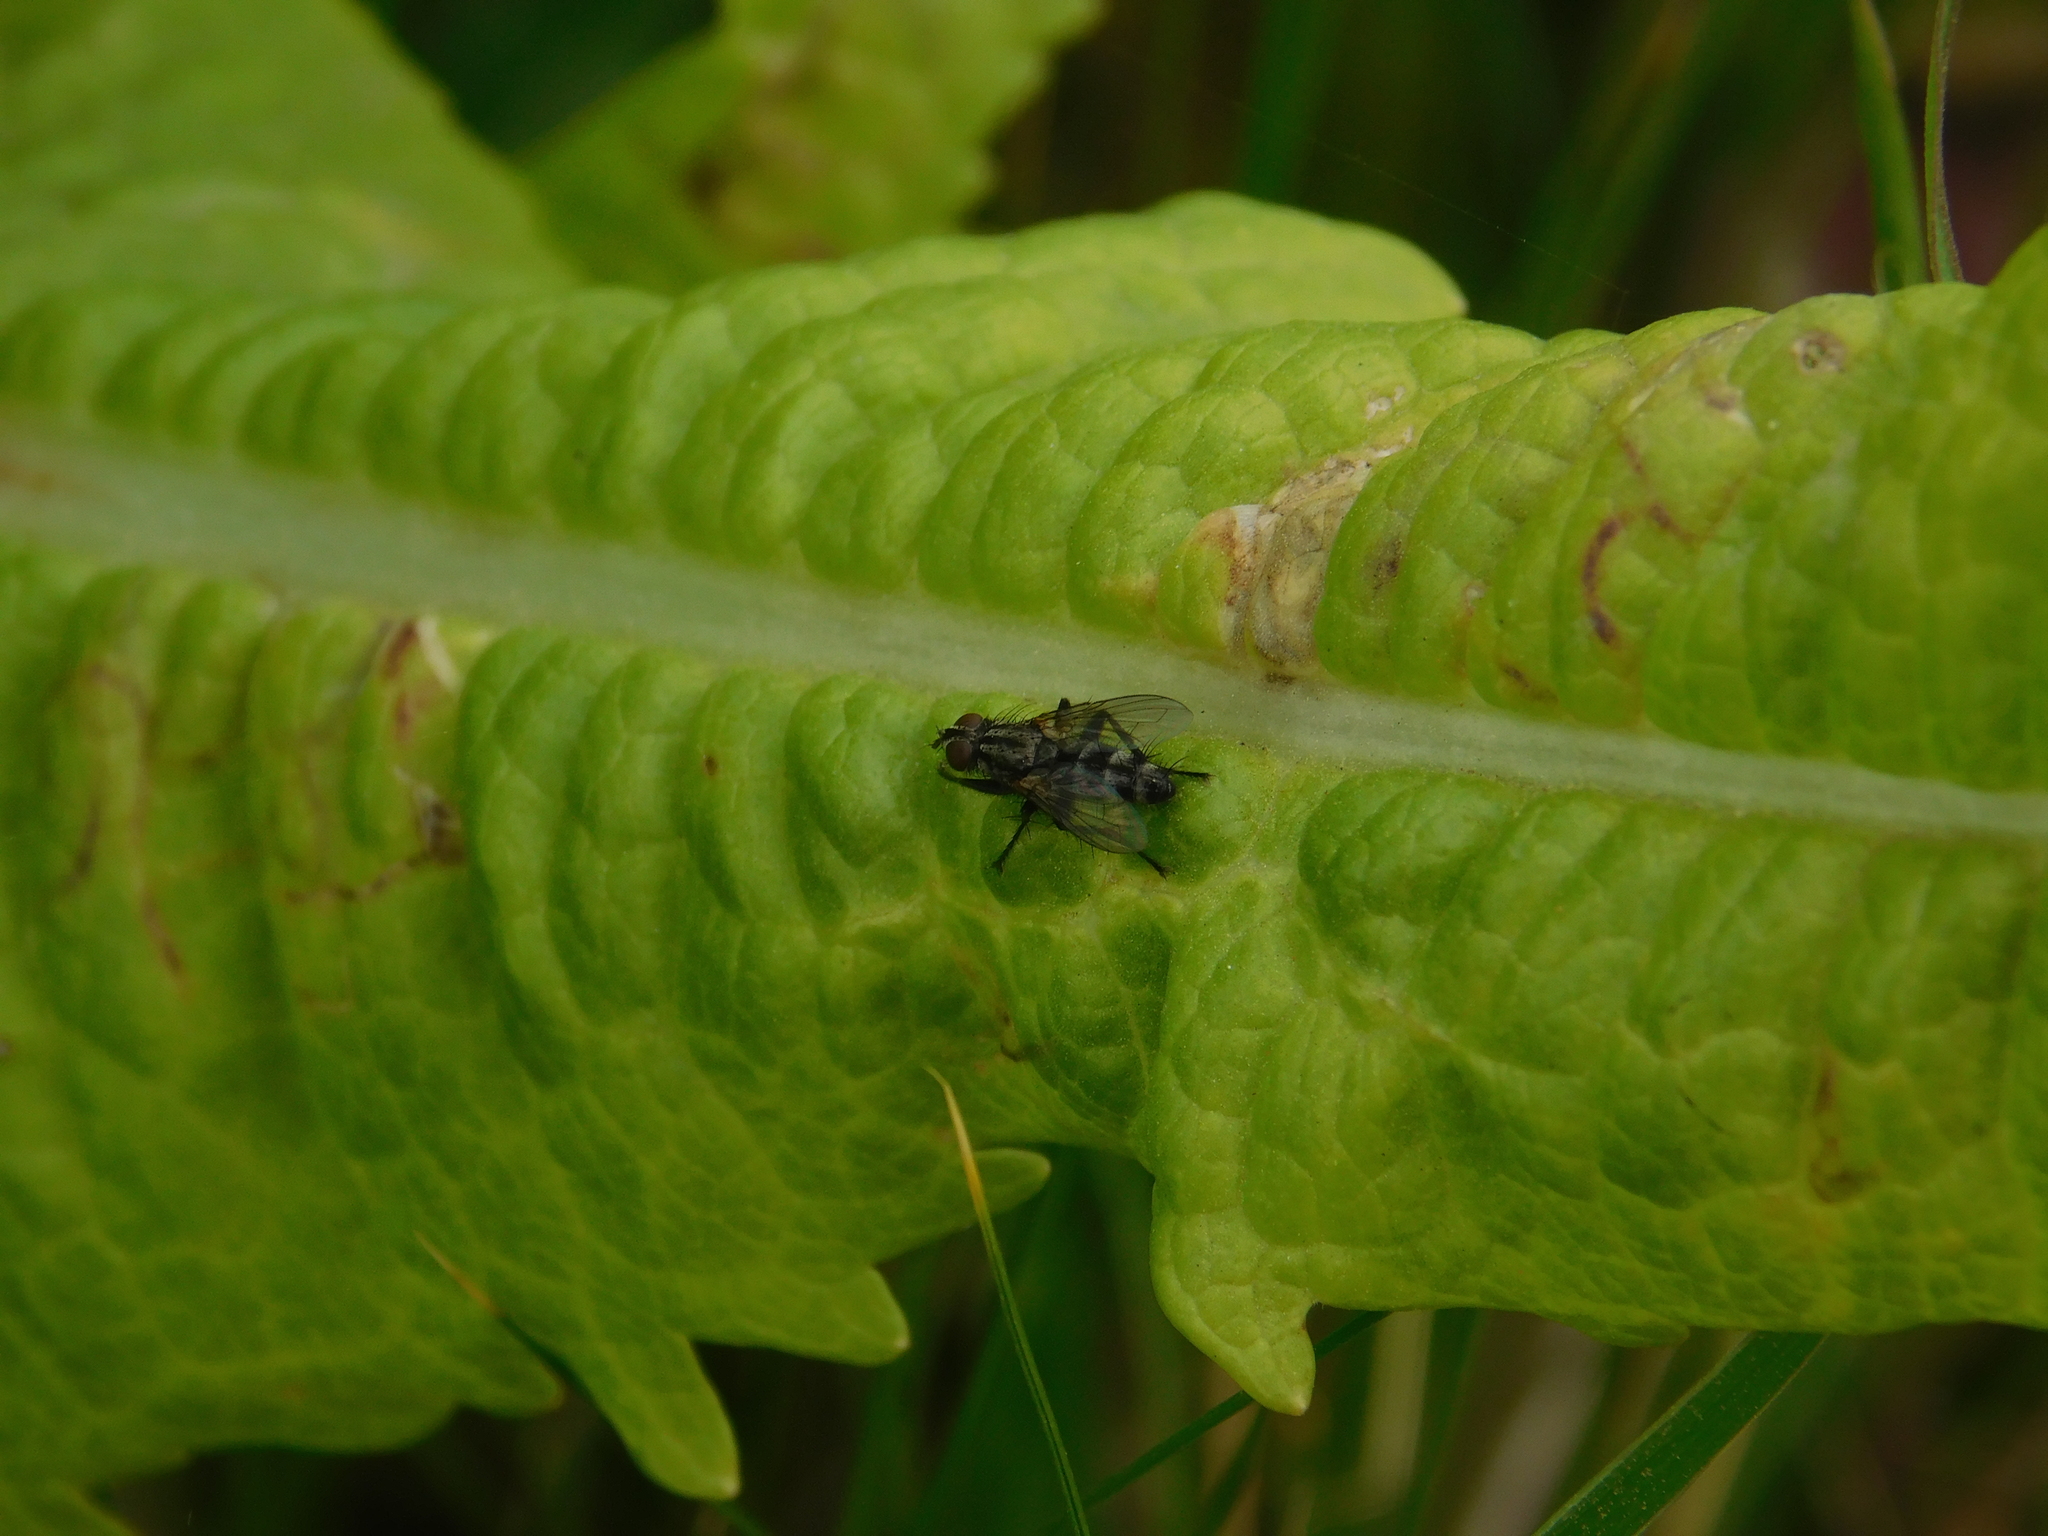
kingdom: Animalia
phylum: Arthropoda
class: Insecta
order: Diptera
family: Calliphoridae
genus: Stevenia
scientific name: Stevenia deceptoria
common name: Grizzled woodlouse-fly
